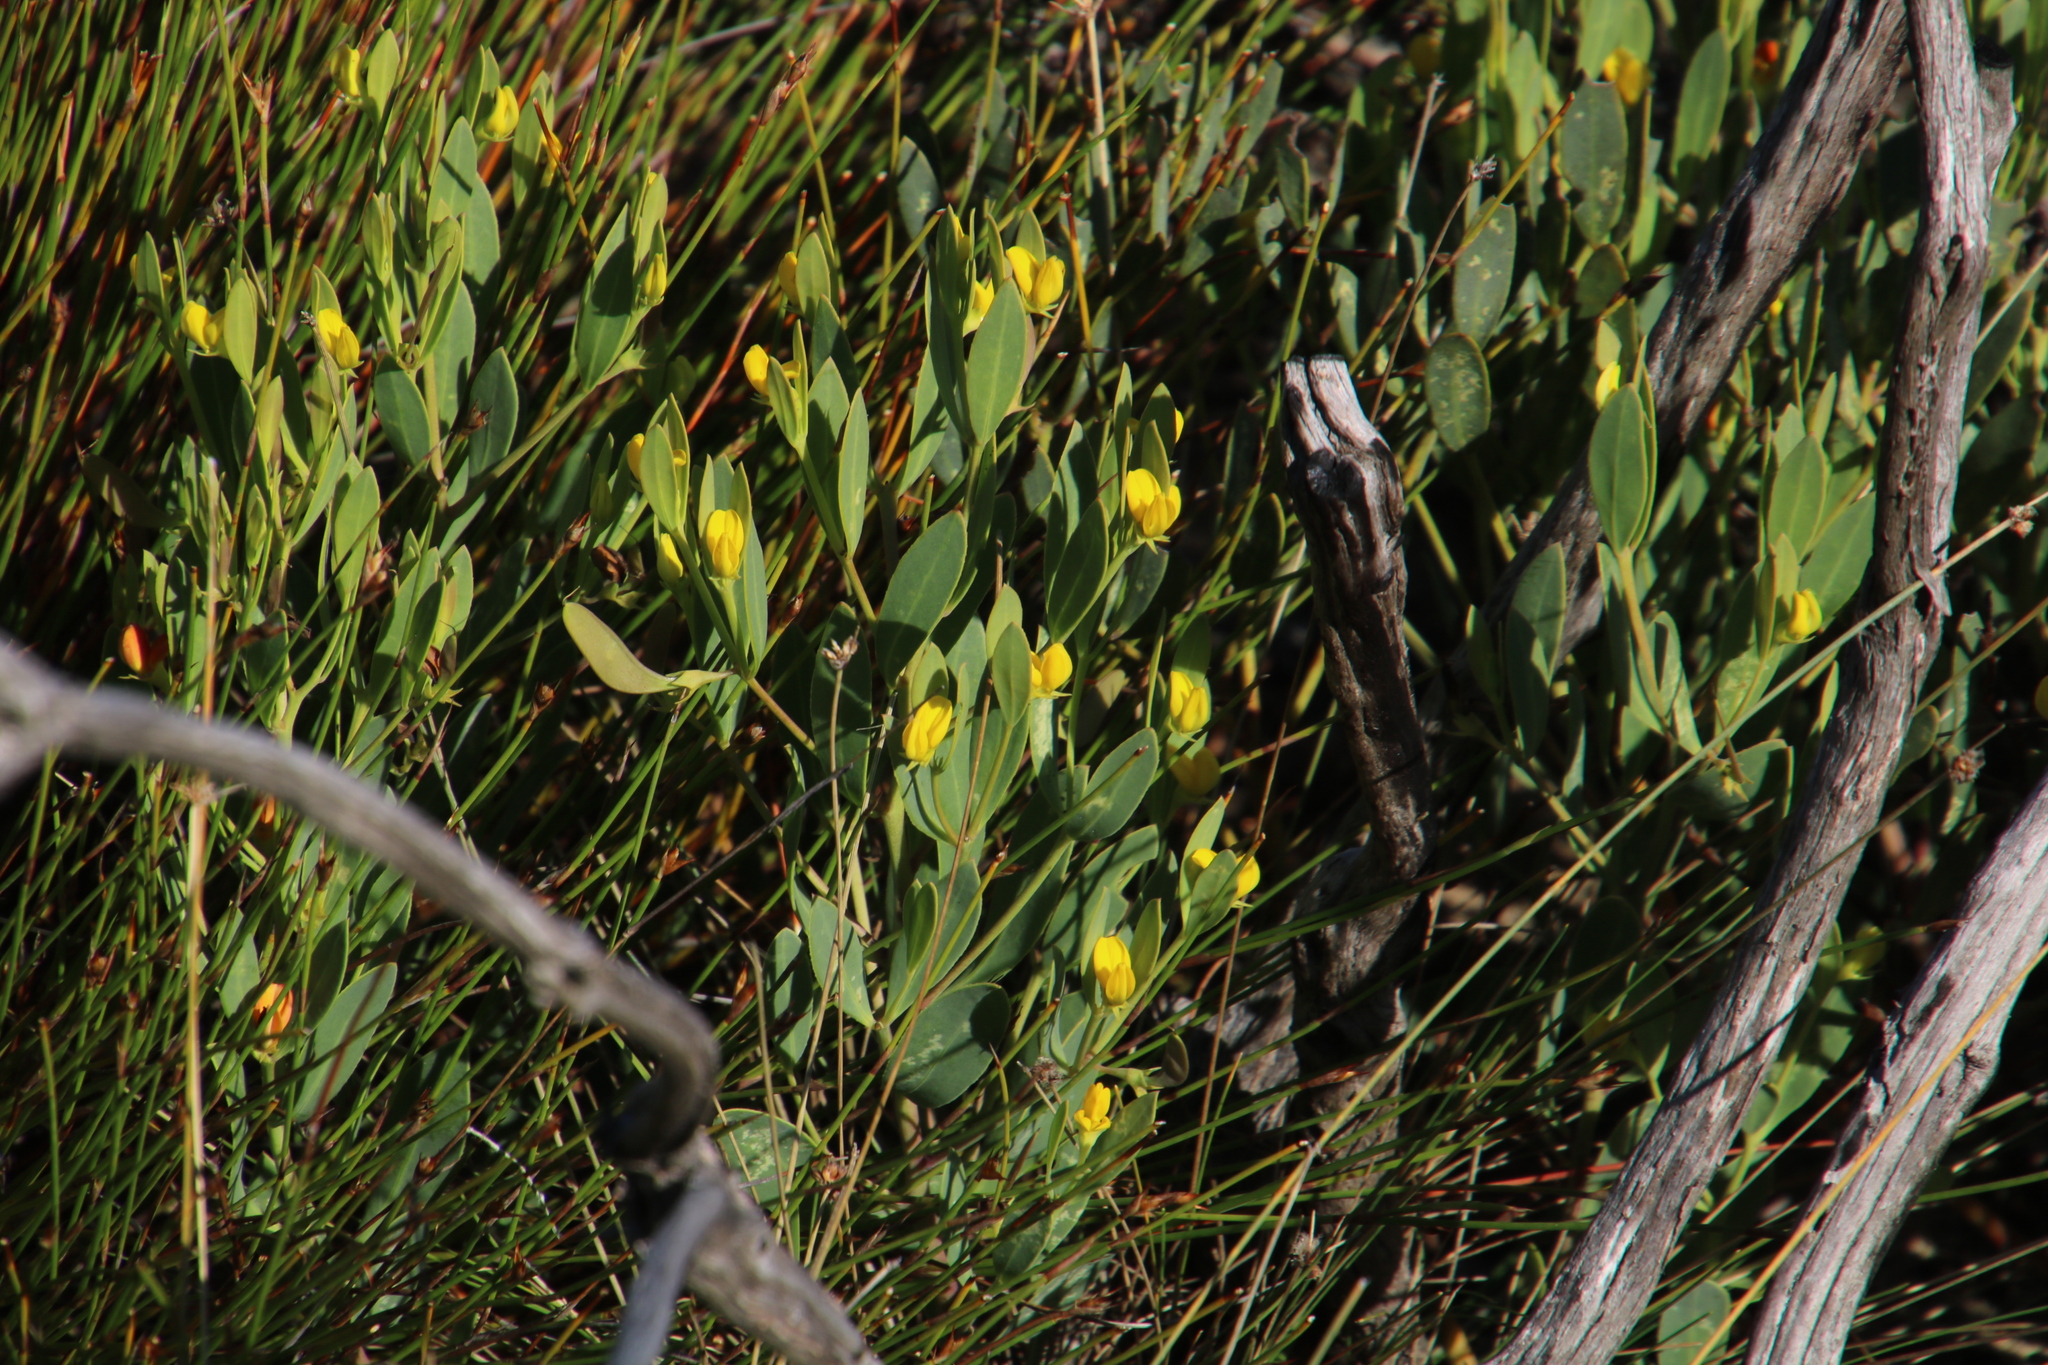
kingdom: Plantae
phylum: Tracheophyta
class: Magnoliopsida
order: Fabales
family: Fabaceae
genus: Rafnia
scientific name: Rafnia angulata
